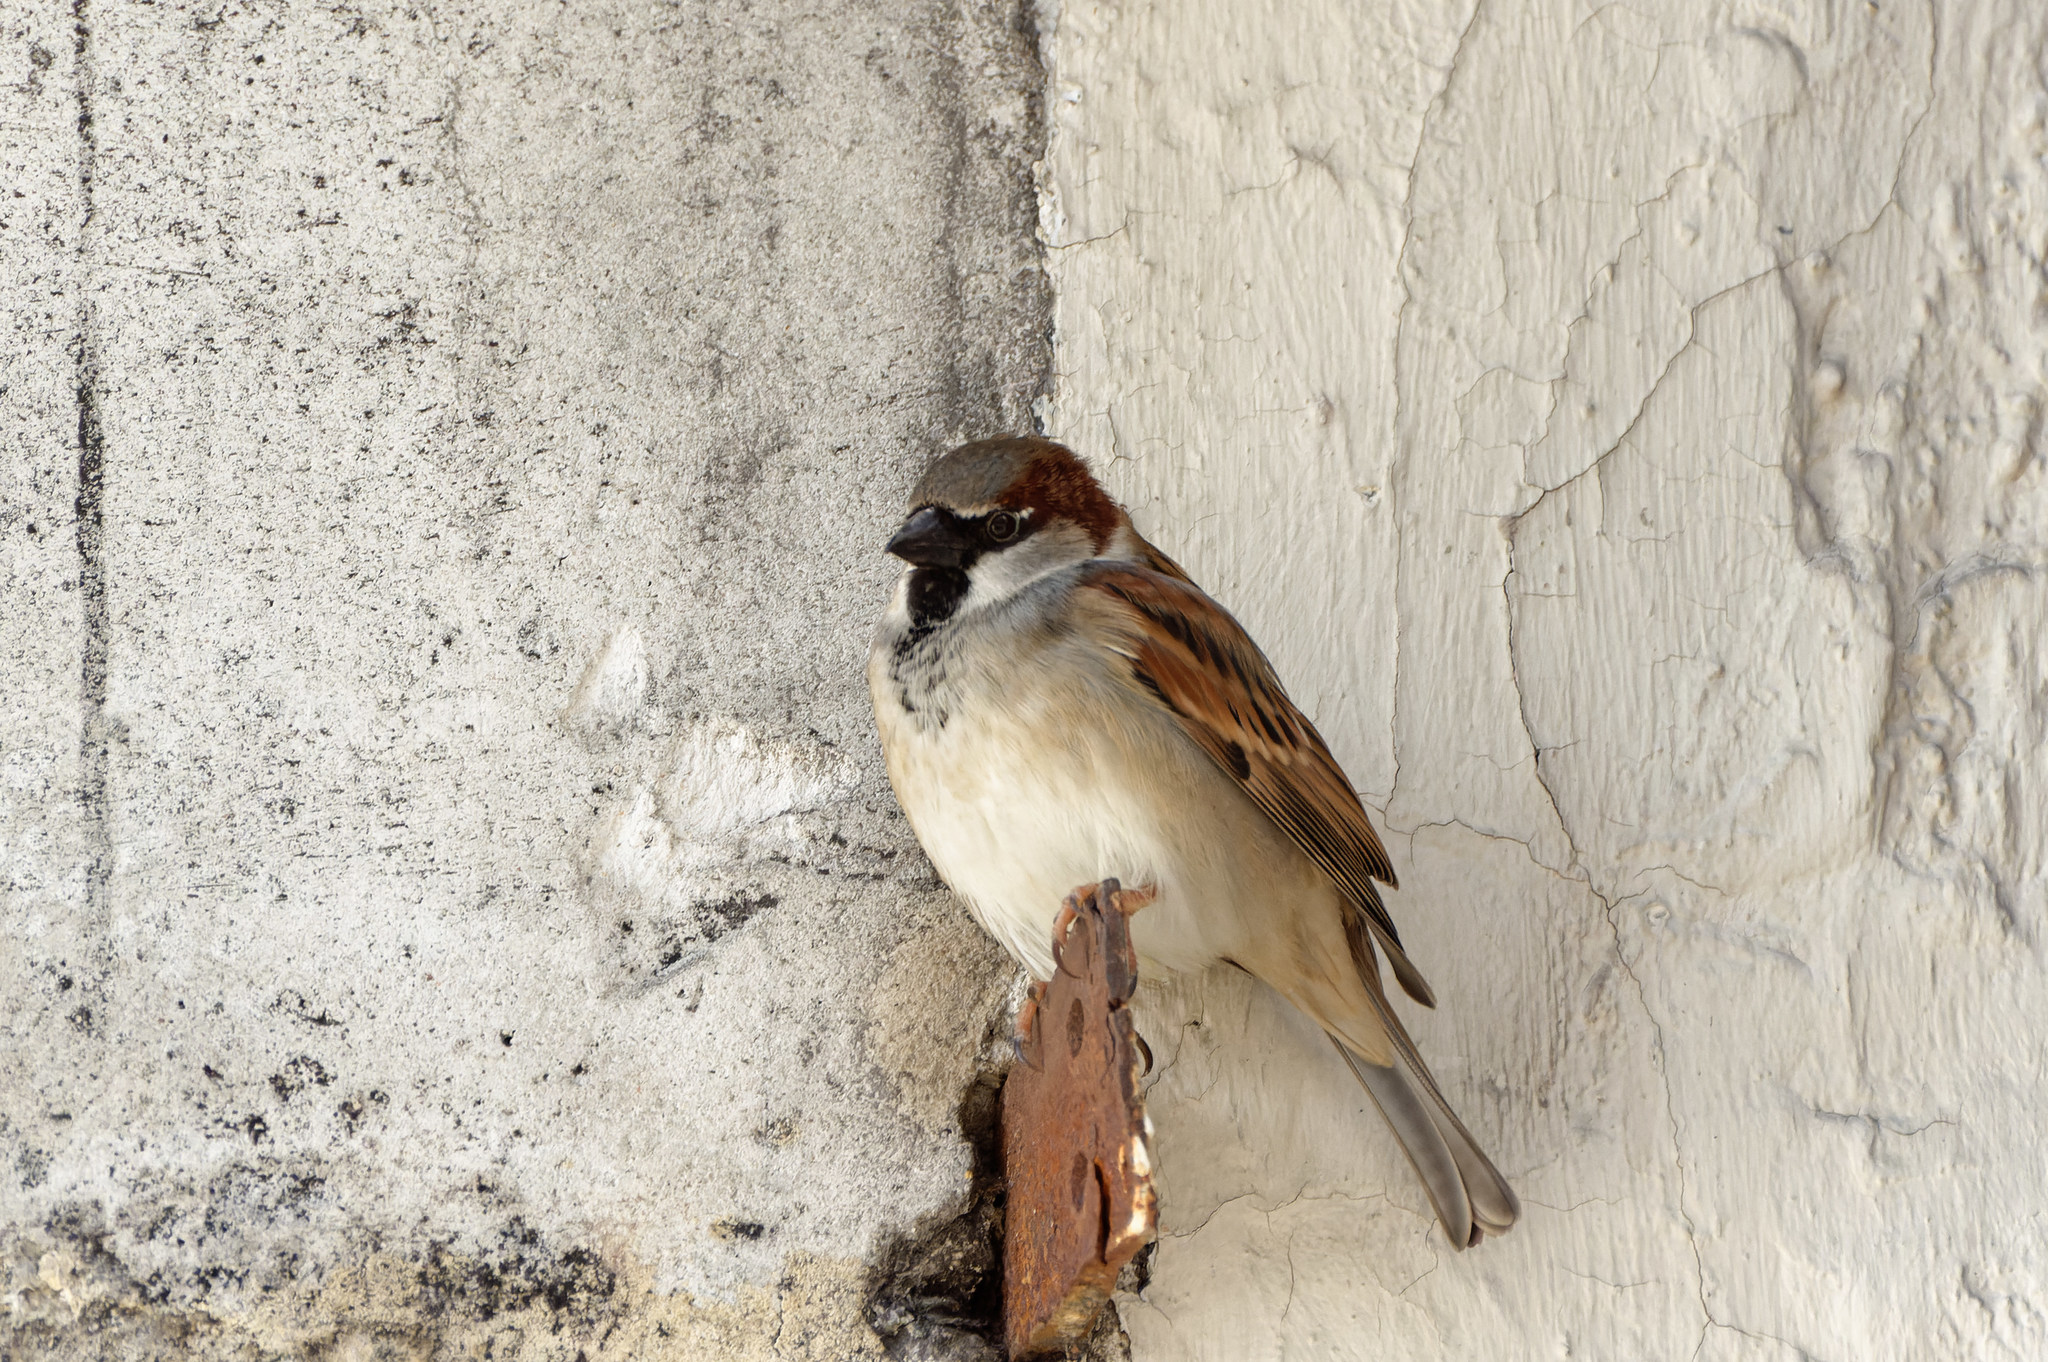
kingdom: Animalia
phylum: Chordata
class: Aves
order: Passeriformes
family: Passeridae
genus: Passer
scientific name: Passer domesticus
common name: House sparrow
